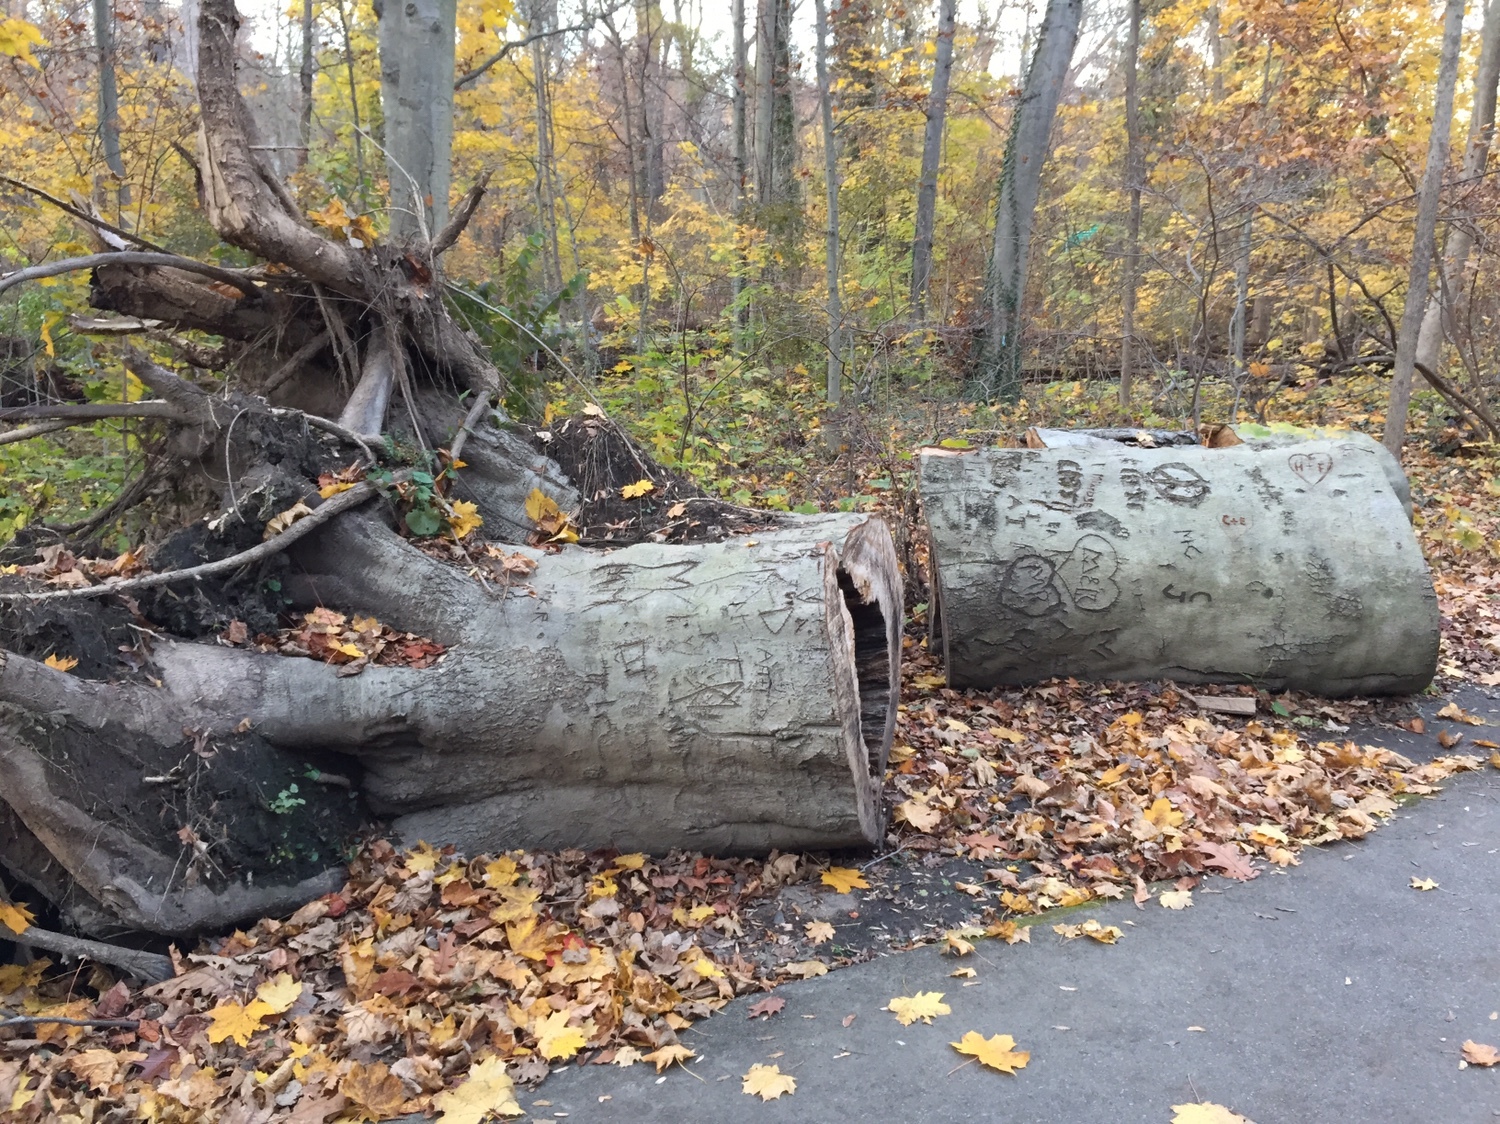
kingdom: Plantae
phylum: Tracheophyta
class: Magnoliopsida
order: Fagales
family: Fagaceae
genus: Fagus
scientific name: Fagus grandifolia
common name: American beech
